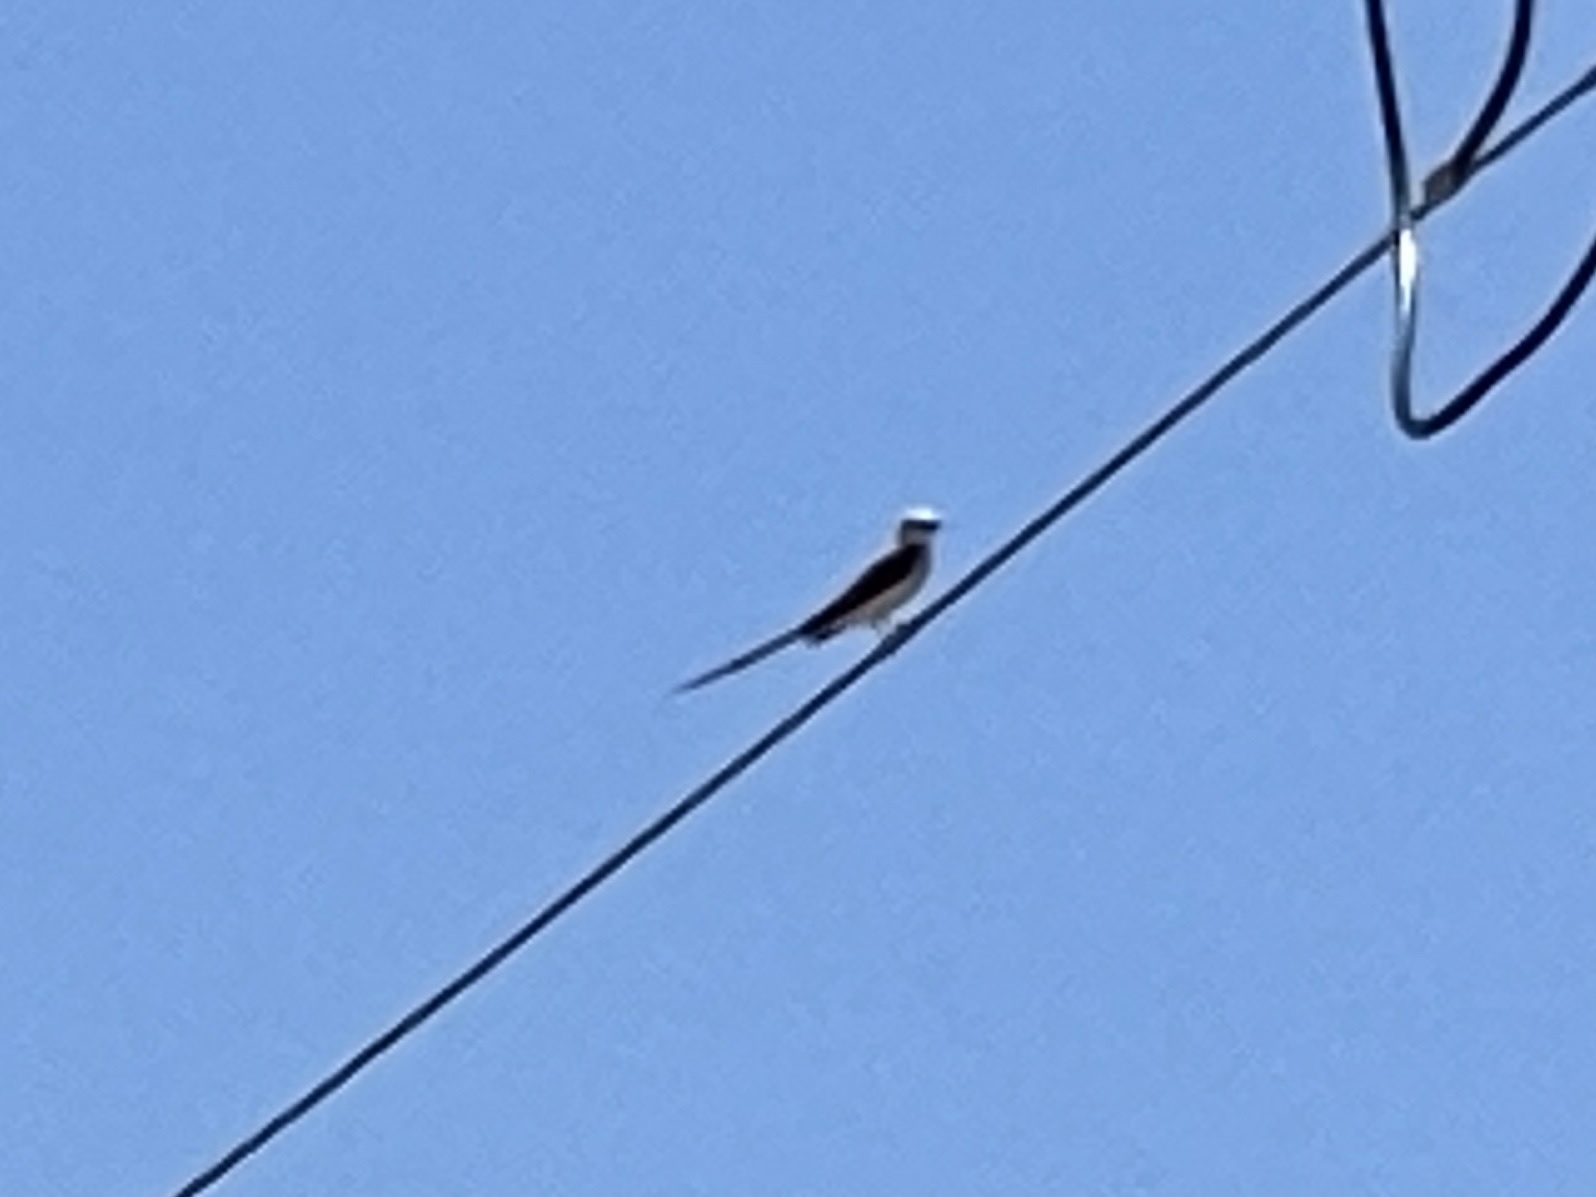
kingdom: Animalia
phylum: Chordata
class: Aves
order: Passeriformes
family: Tyrannidae
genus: Tyrannus
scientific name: Tyrannus forficatus
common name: Scissor-tailed flycatcher
